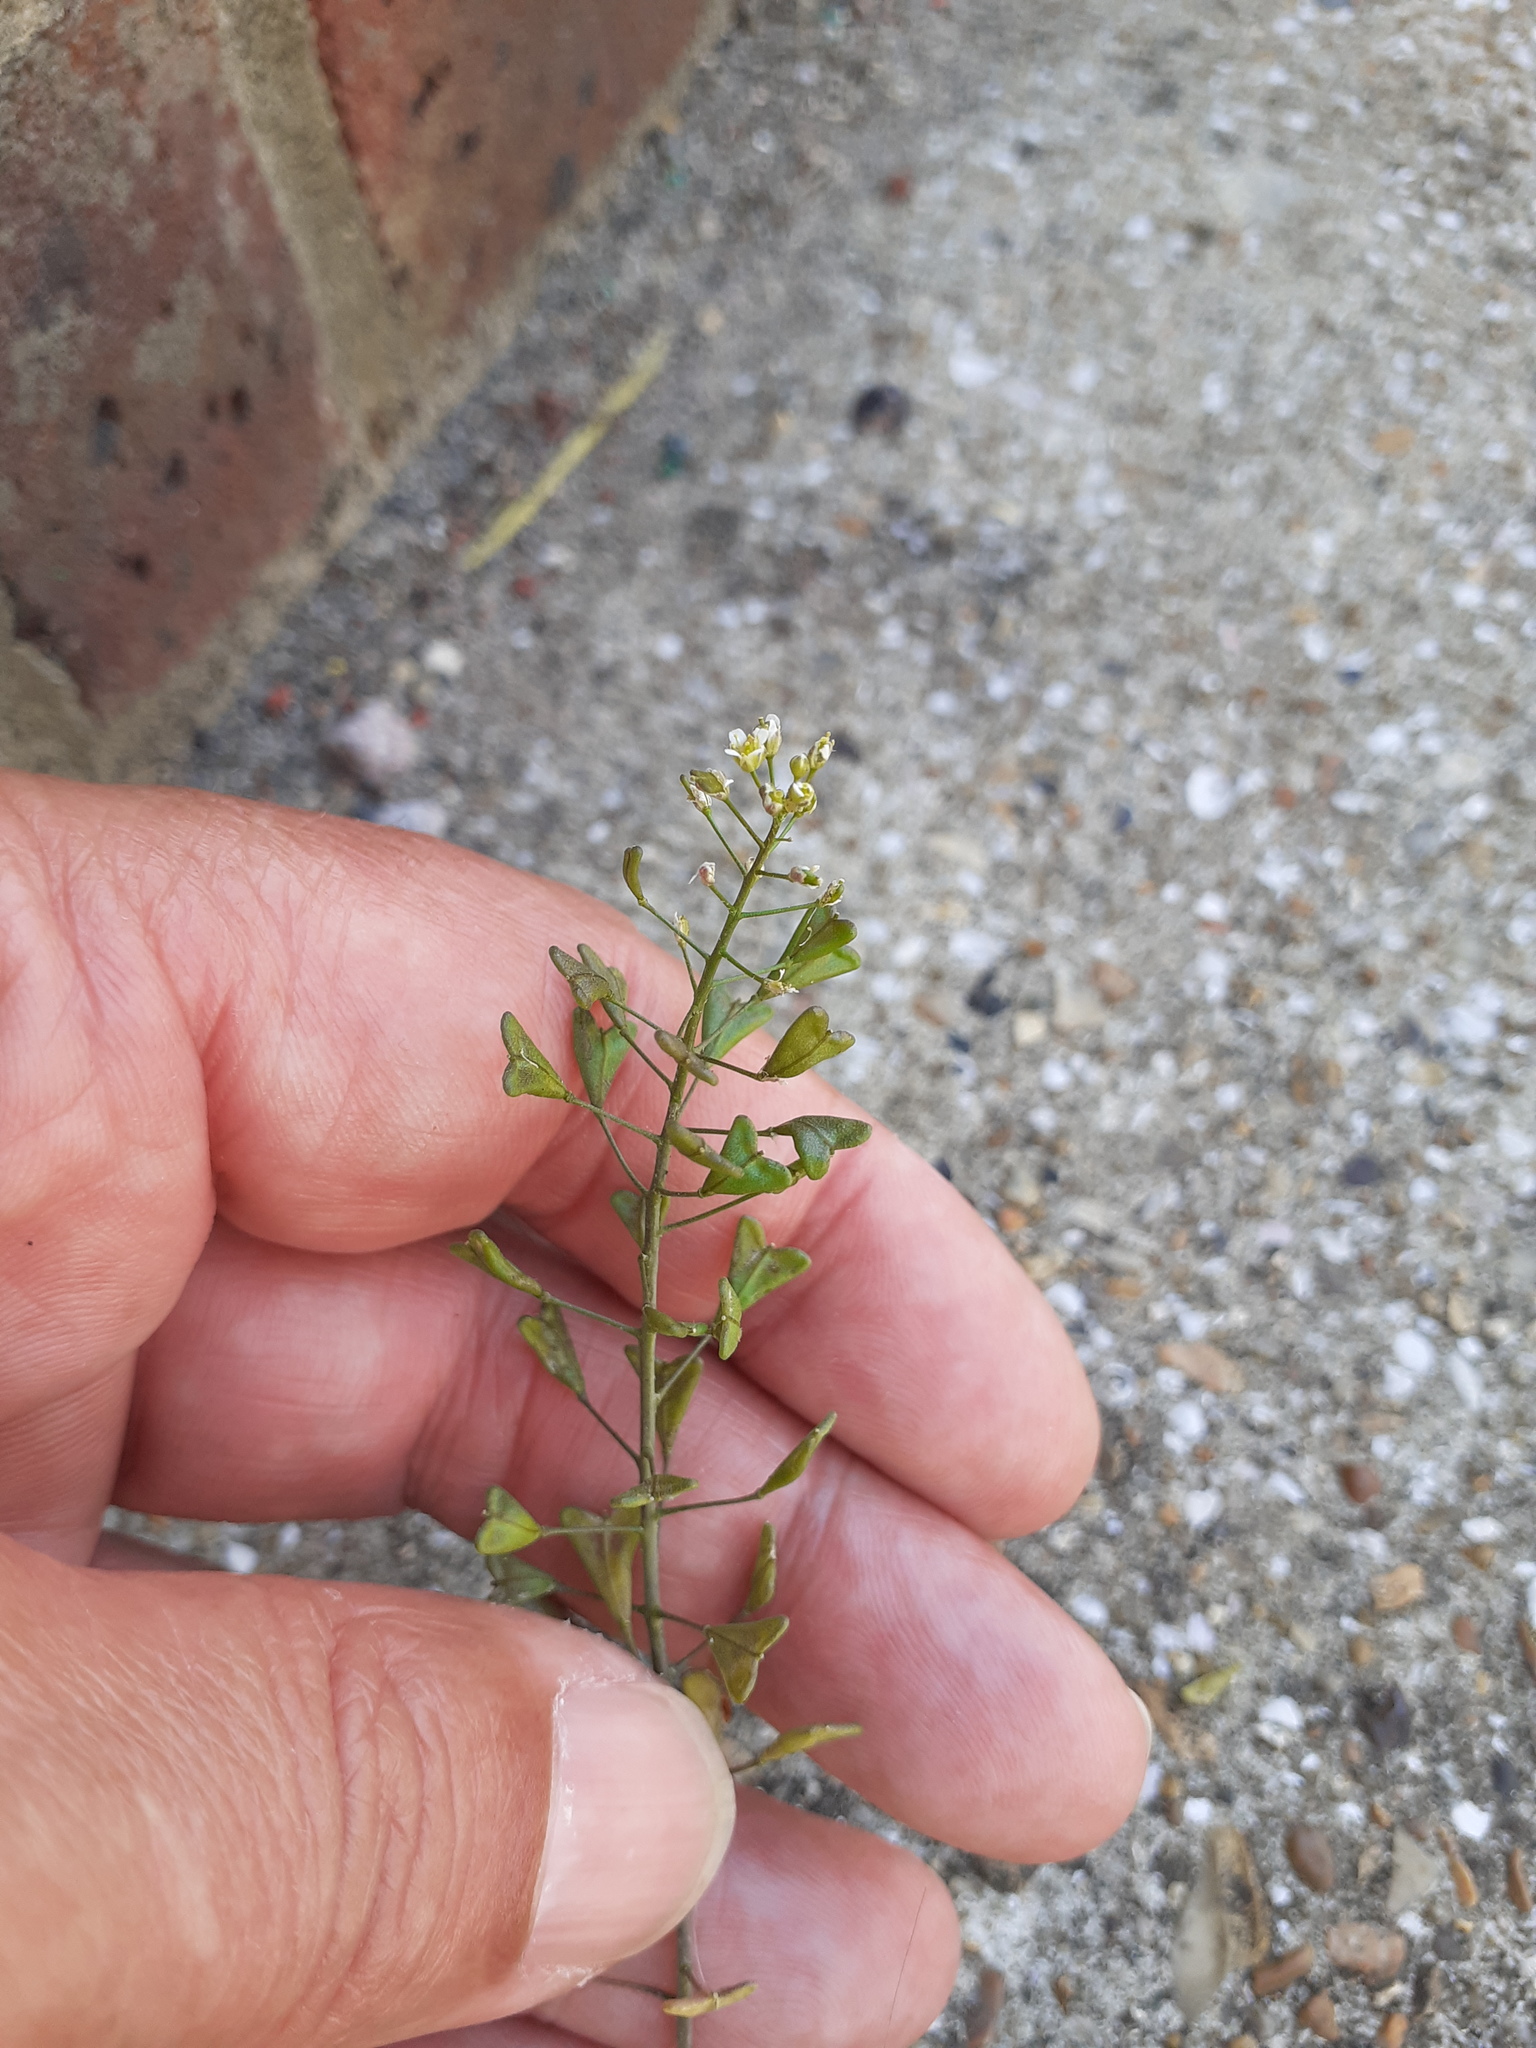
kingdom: Plantae
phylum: Tracheophyta
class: Magnoliopsida
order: Brassicales
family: Brassicaceae
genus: Capsella
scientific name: Capsella bursa-pastoris
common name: Shepherd's purse
